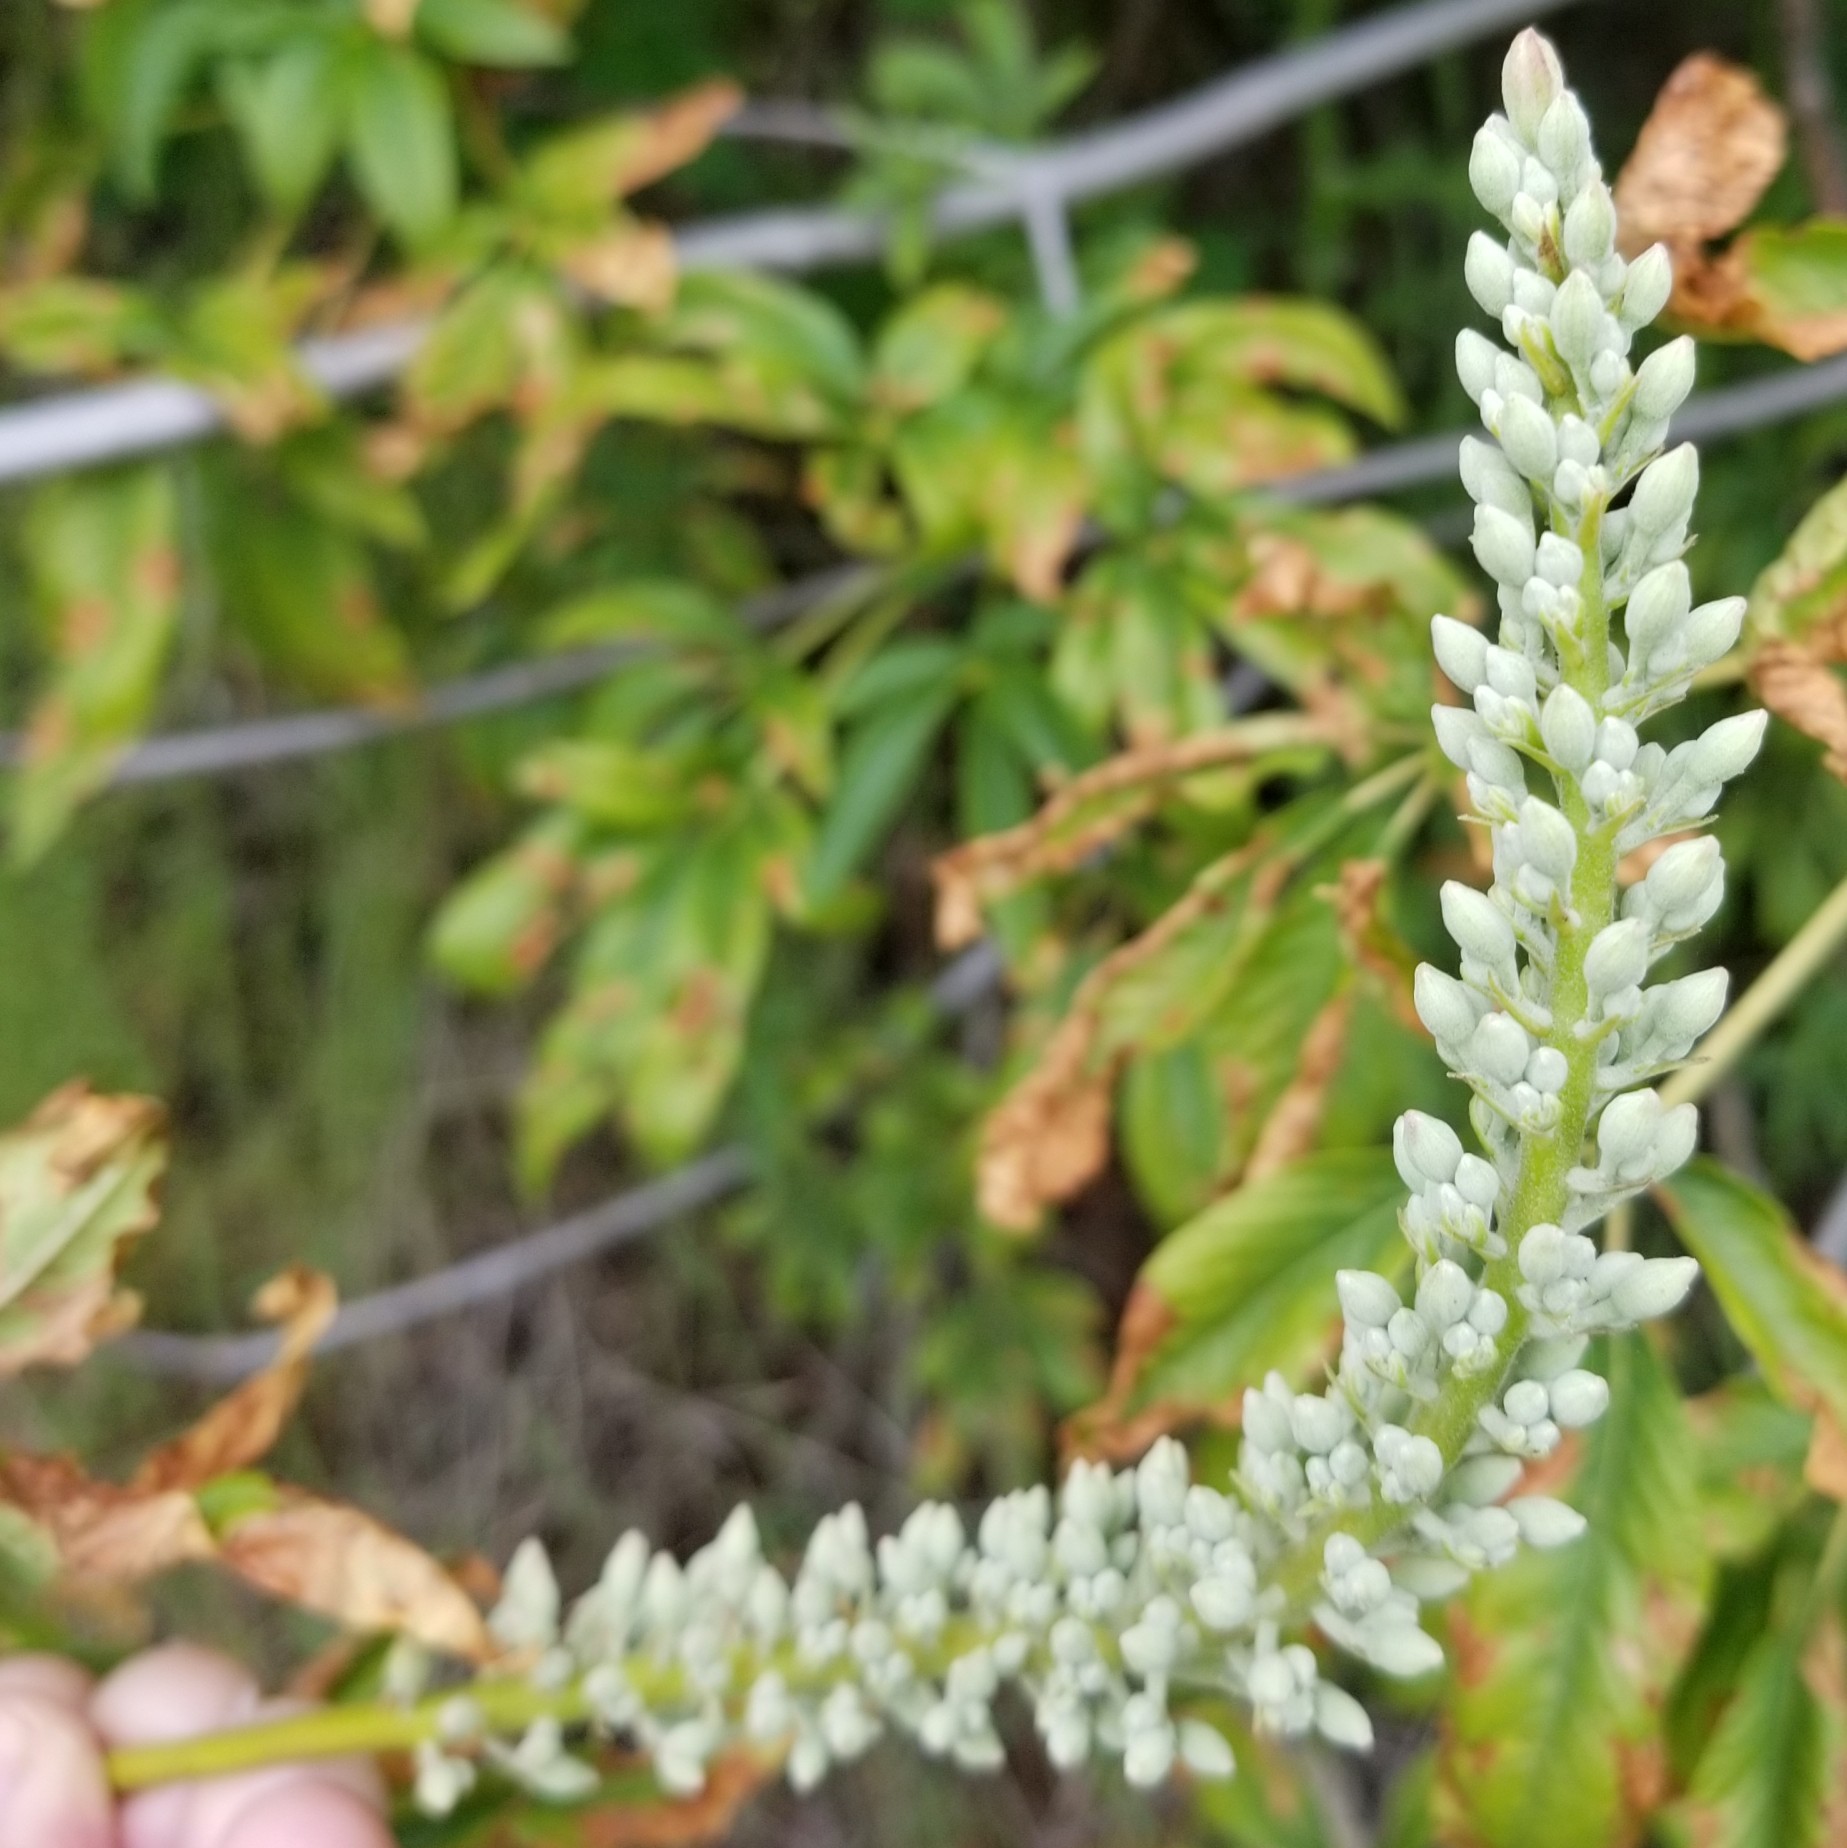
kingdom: Plantae
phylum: Tracheophyta
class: Magnoliopsida
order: Sapindales
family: Sapindaceae
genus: Aesculus
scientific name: Aesculus californica
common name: California buckeye
